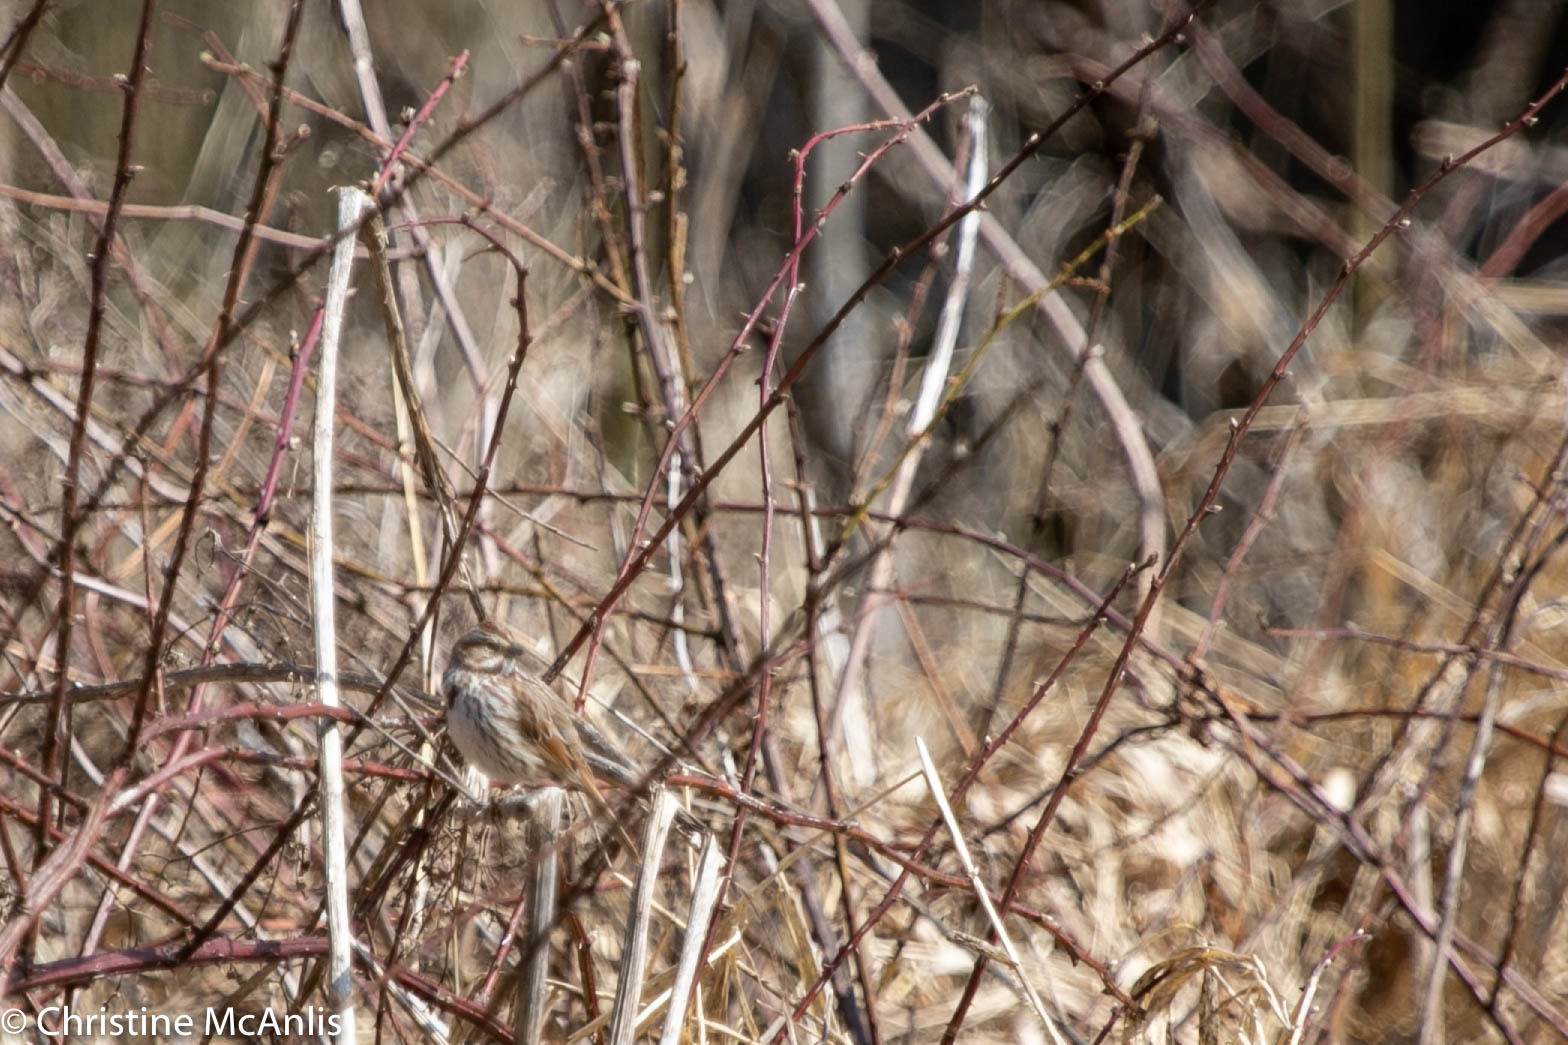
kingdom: Animalia
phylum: Chordata
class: Aves
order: Passeriformes
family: Passerellidae
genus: Melospiza
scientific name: Melospiza melodia
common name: Song sparrow
